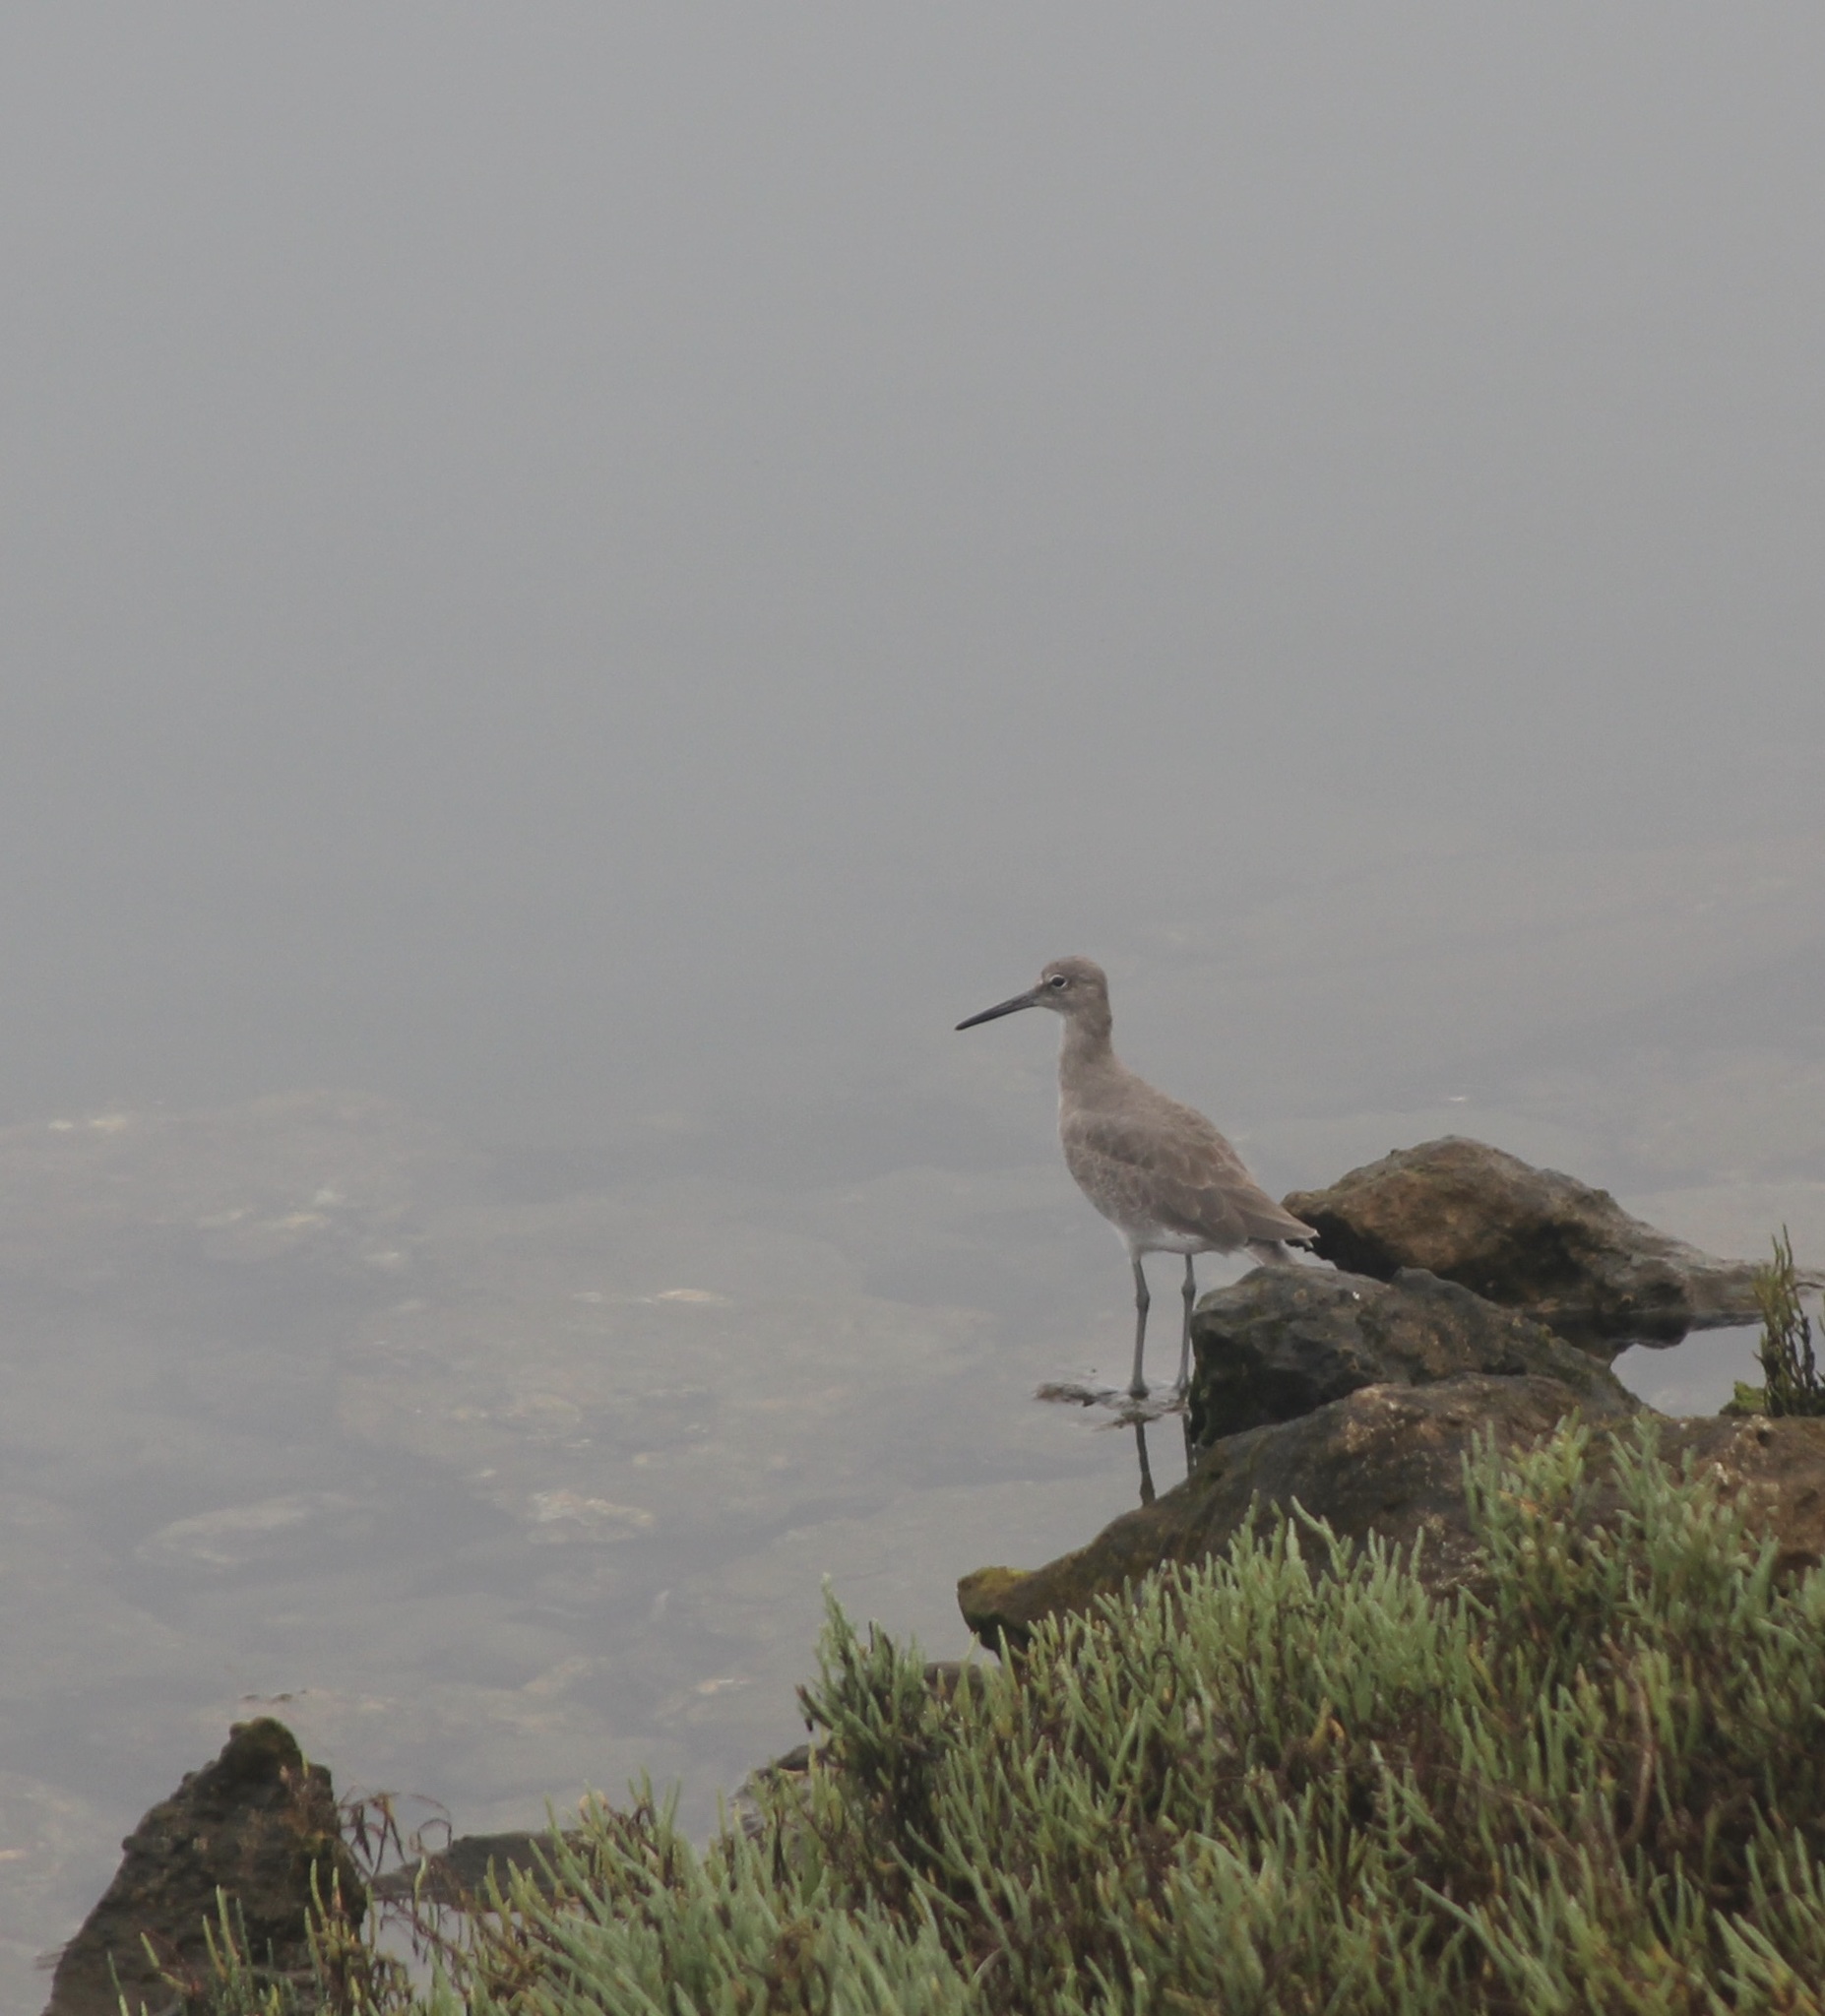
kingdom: Animalia
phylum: Chordata
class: Aves
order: Charadriiformes
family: Scolopacidae
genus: Tringa
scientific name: Tringa semipalmata
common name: Willet
